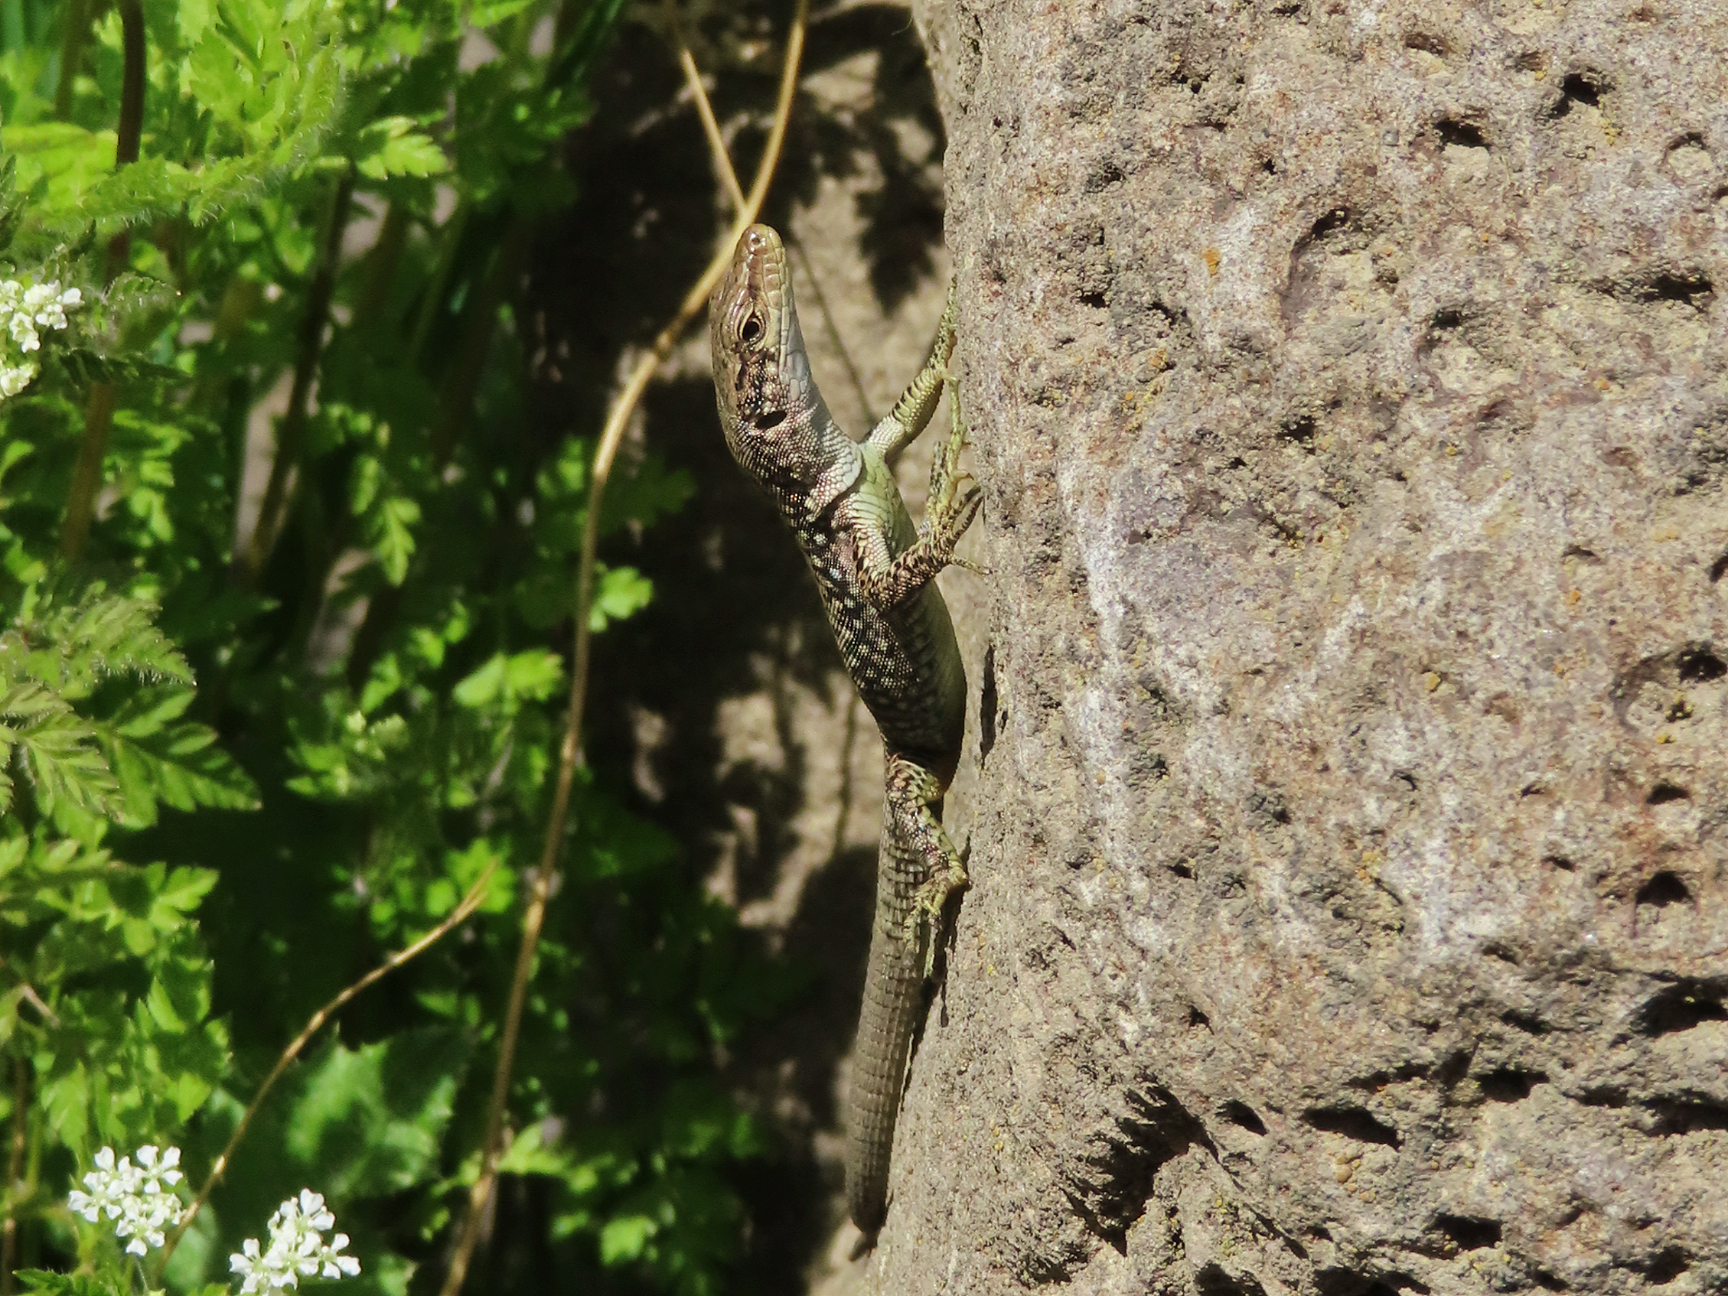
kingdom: Animalia
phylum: Chordata
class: Squamata
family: Lacertidae
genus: Darevskia
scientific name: Darevskia
